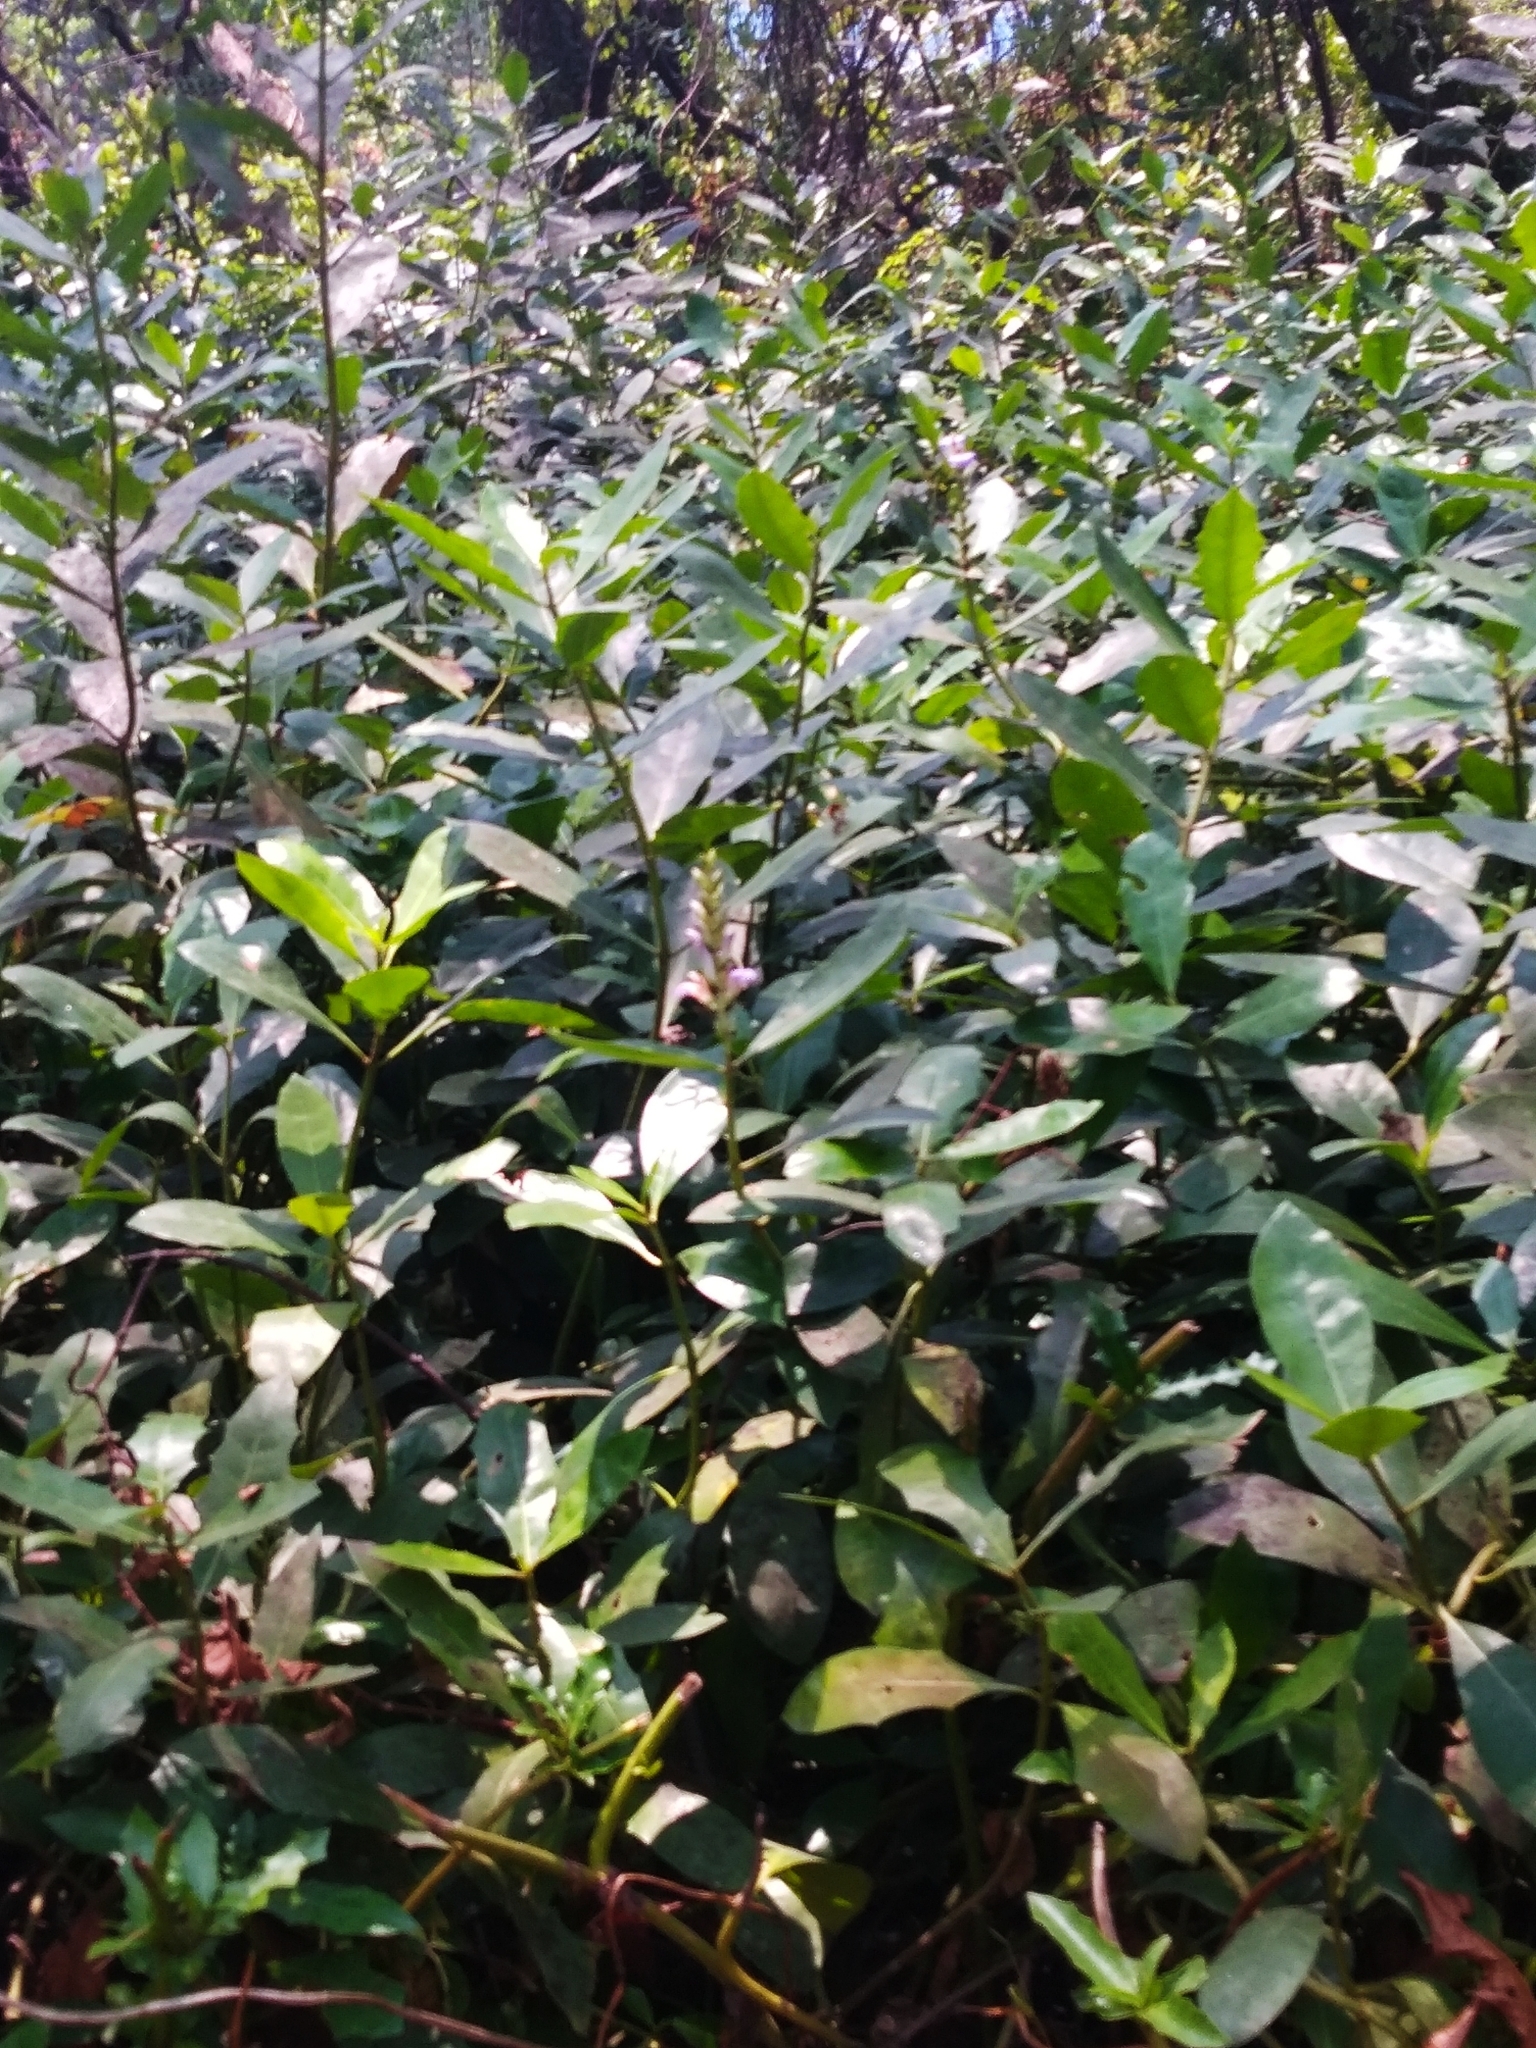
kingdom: Plantae
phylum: Tracheophyta
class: Magnoliopsida
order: Lamiales
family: Acanthaceae
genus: Acanthus
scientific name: Acanthus ilicifolius
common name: Holy mangrove
